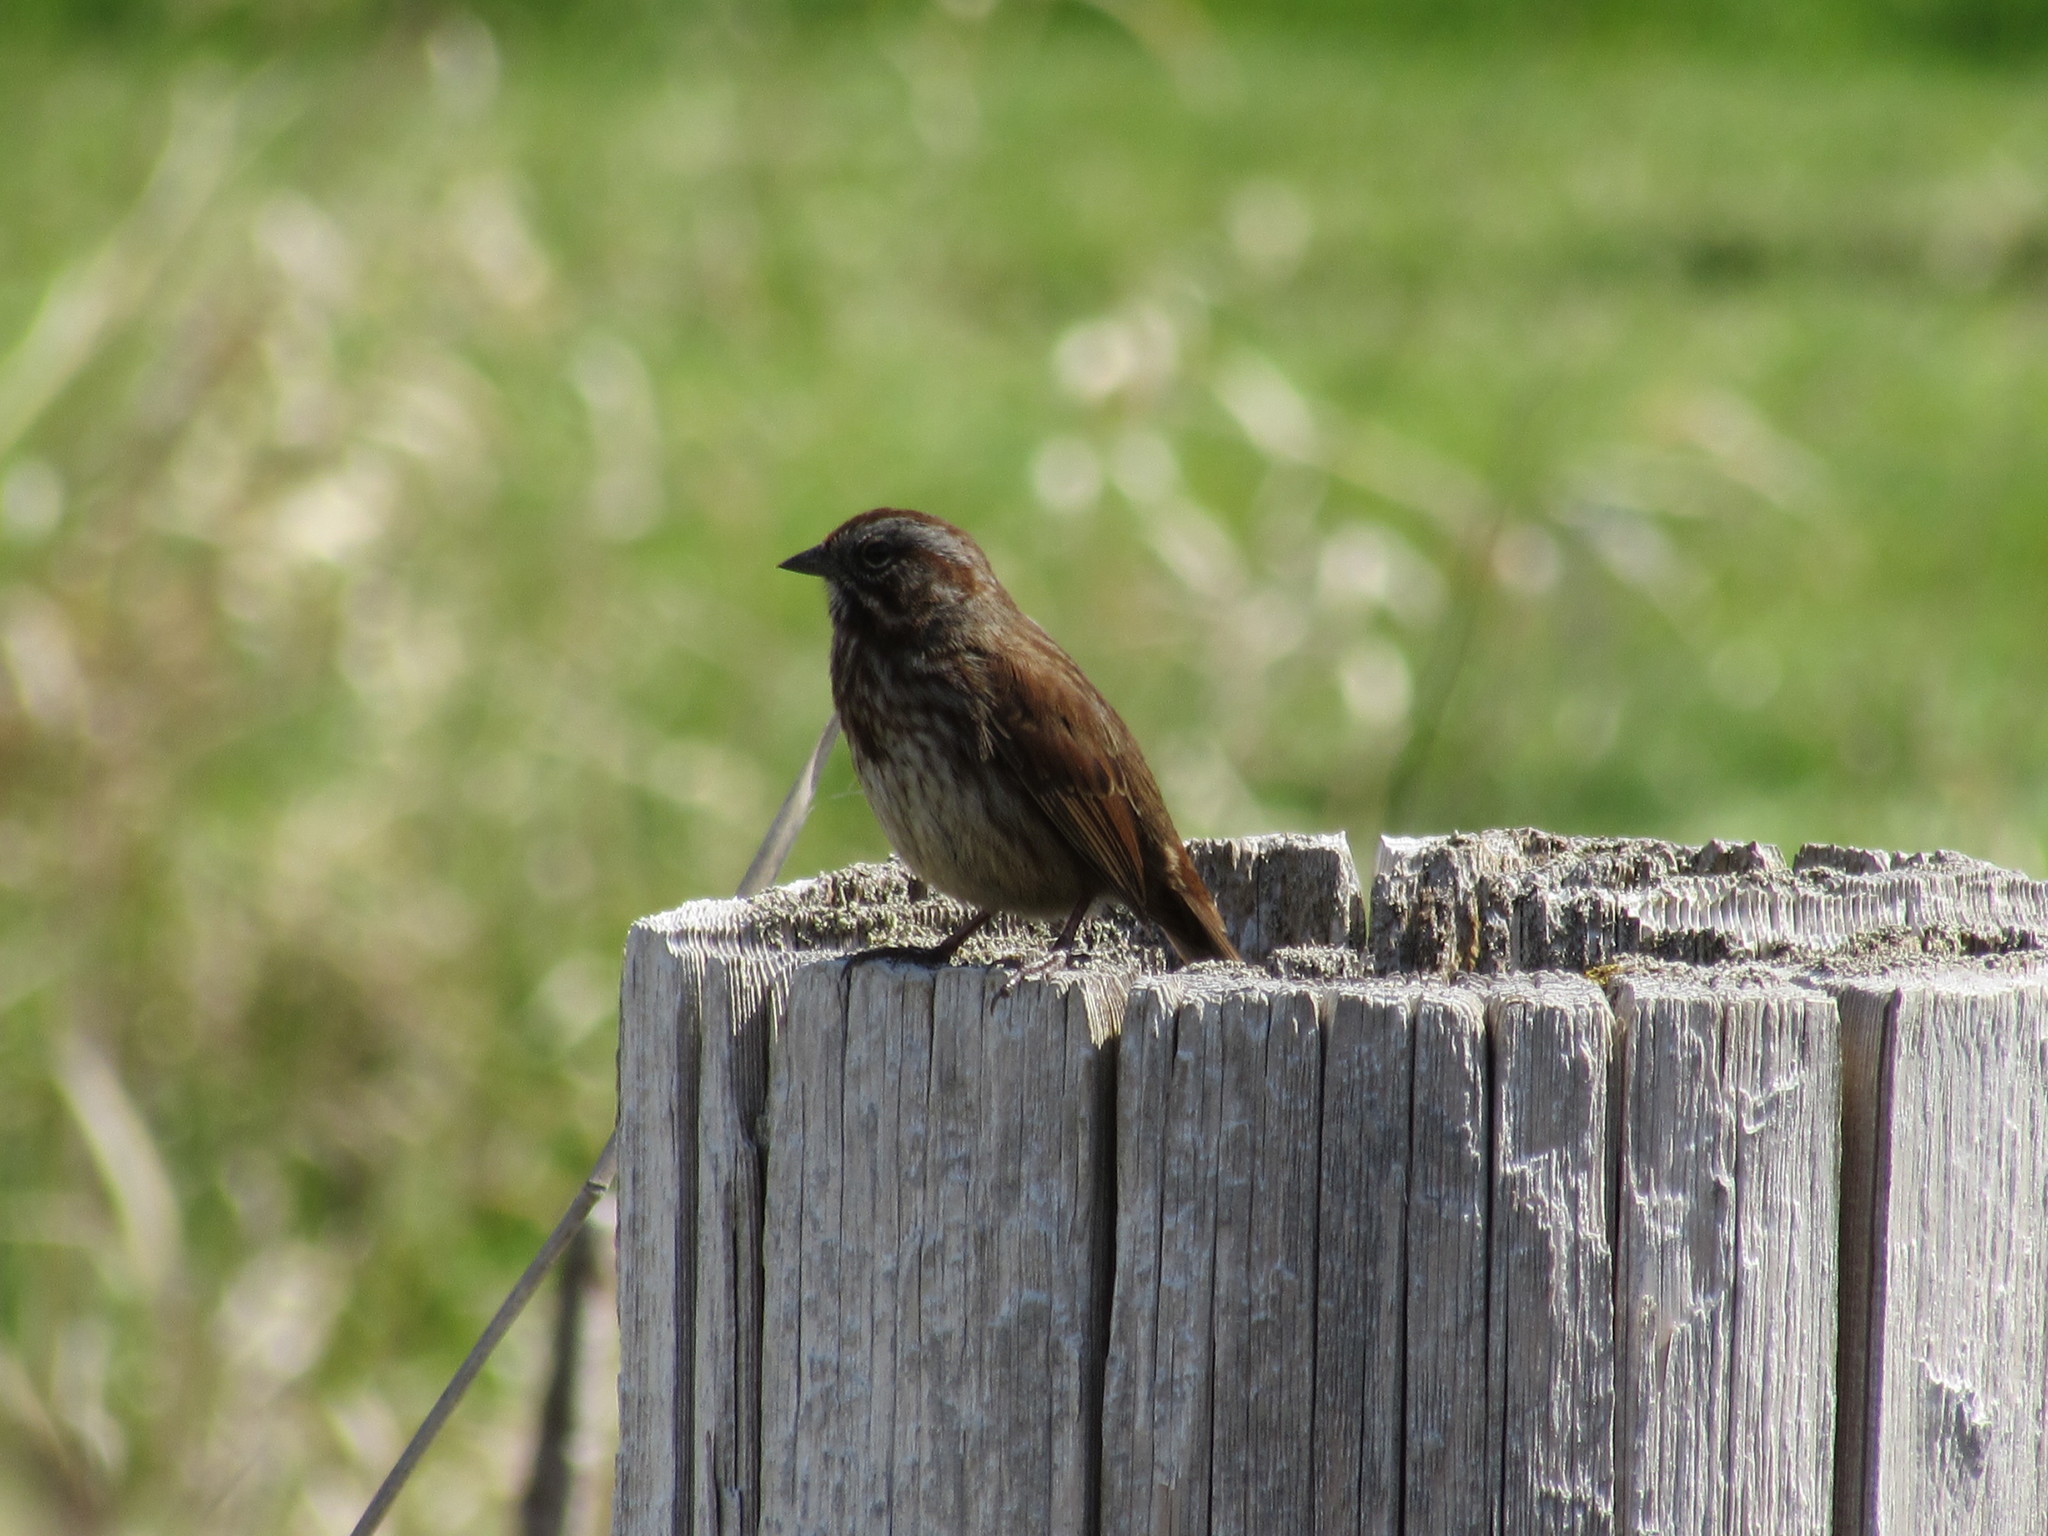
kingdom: Animalia
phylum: Chordata
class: Aves
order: Passeriformes
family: Passerellidae
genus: Melospiza
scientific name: Melospiza melodia
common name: Song sparrow
